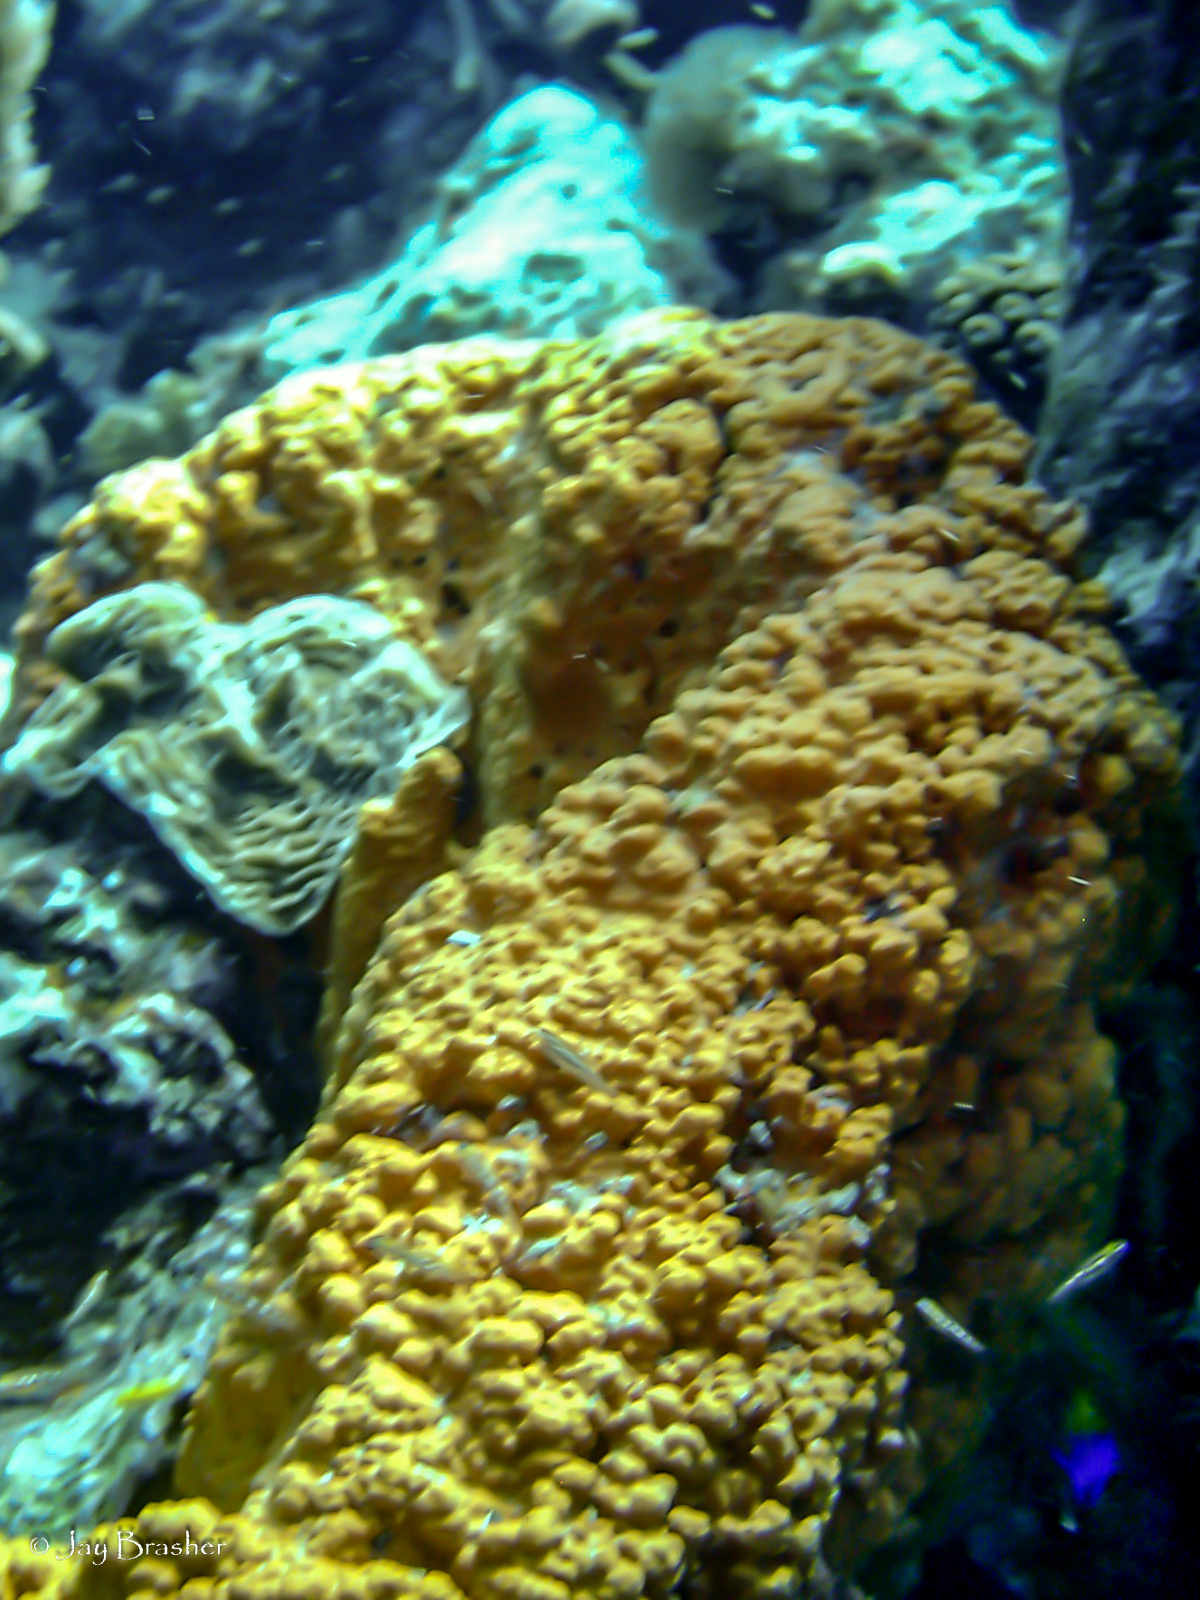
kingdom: Animalia
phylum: Porifera
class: Demospongiae
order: Agelasida
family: Agelasidae
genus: Agelas
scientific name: Agelas clathrodes
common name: Orange elephant ear sponge
